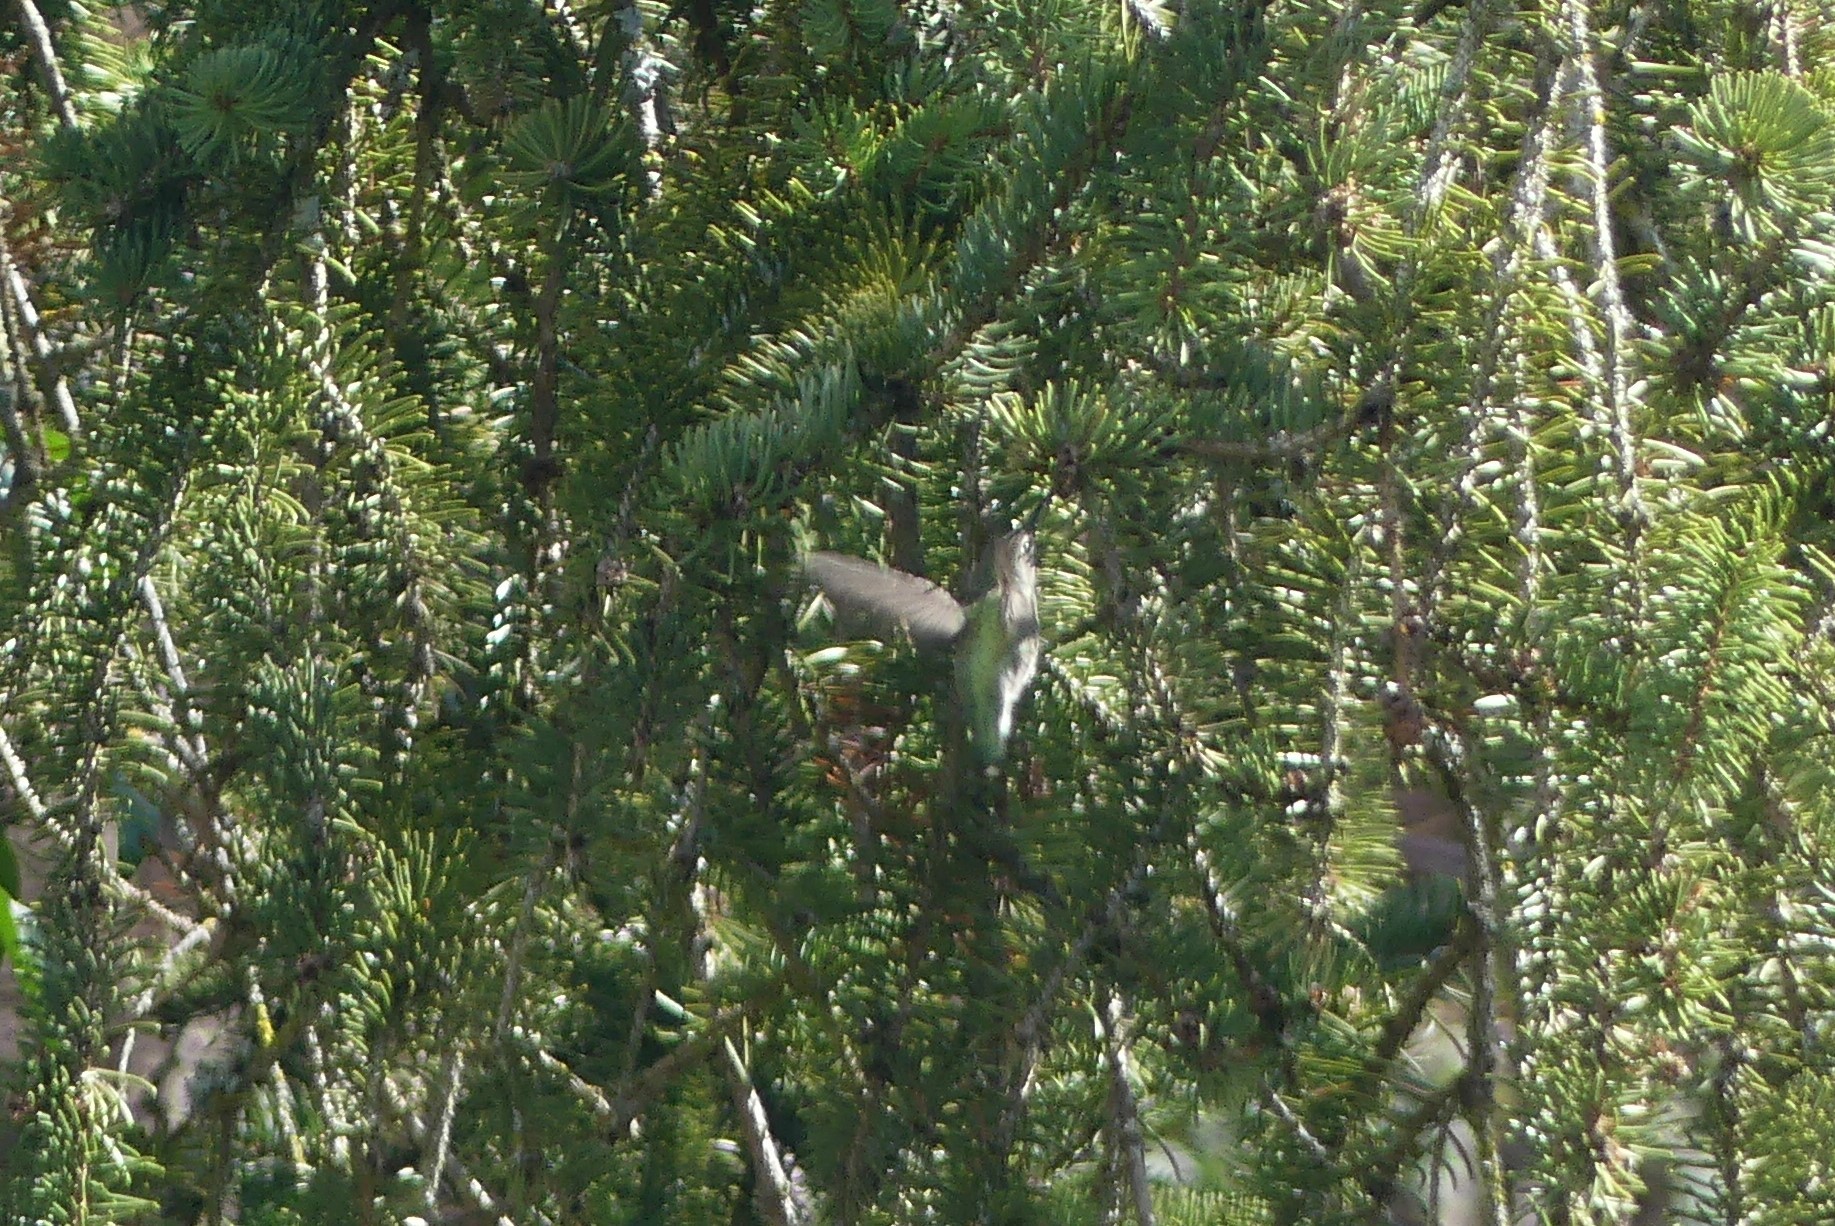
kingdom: Animalia
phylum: Chordata
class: Aves
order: Apodiformes
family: Trochilidae
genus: Calypte
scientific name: Calypte anna
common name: Anna's hummingbird
